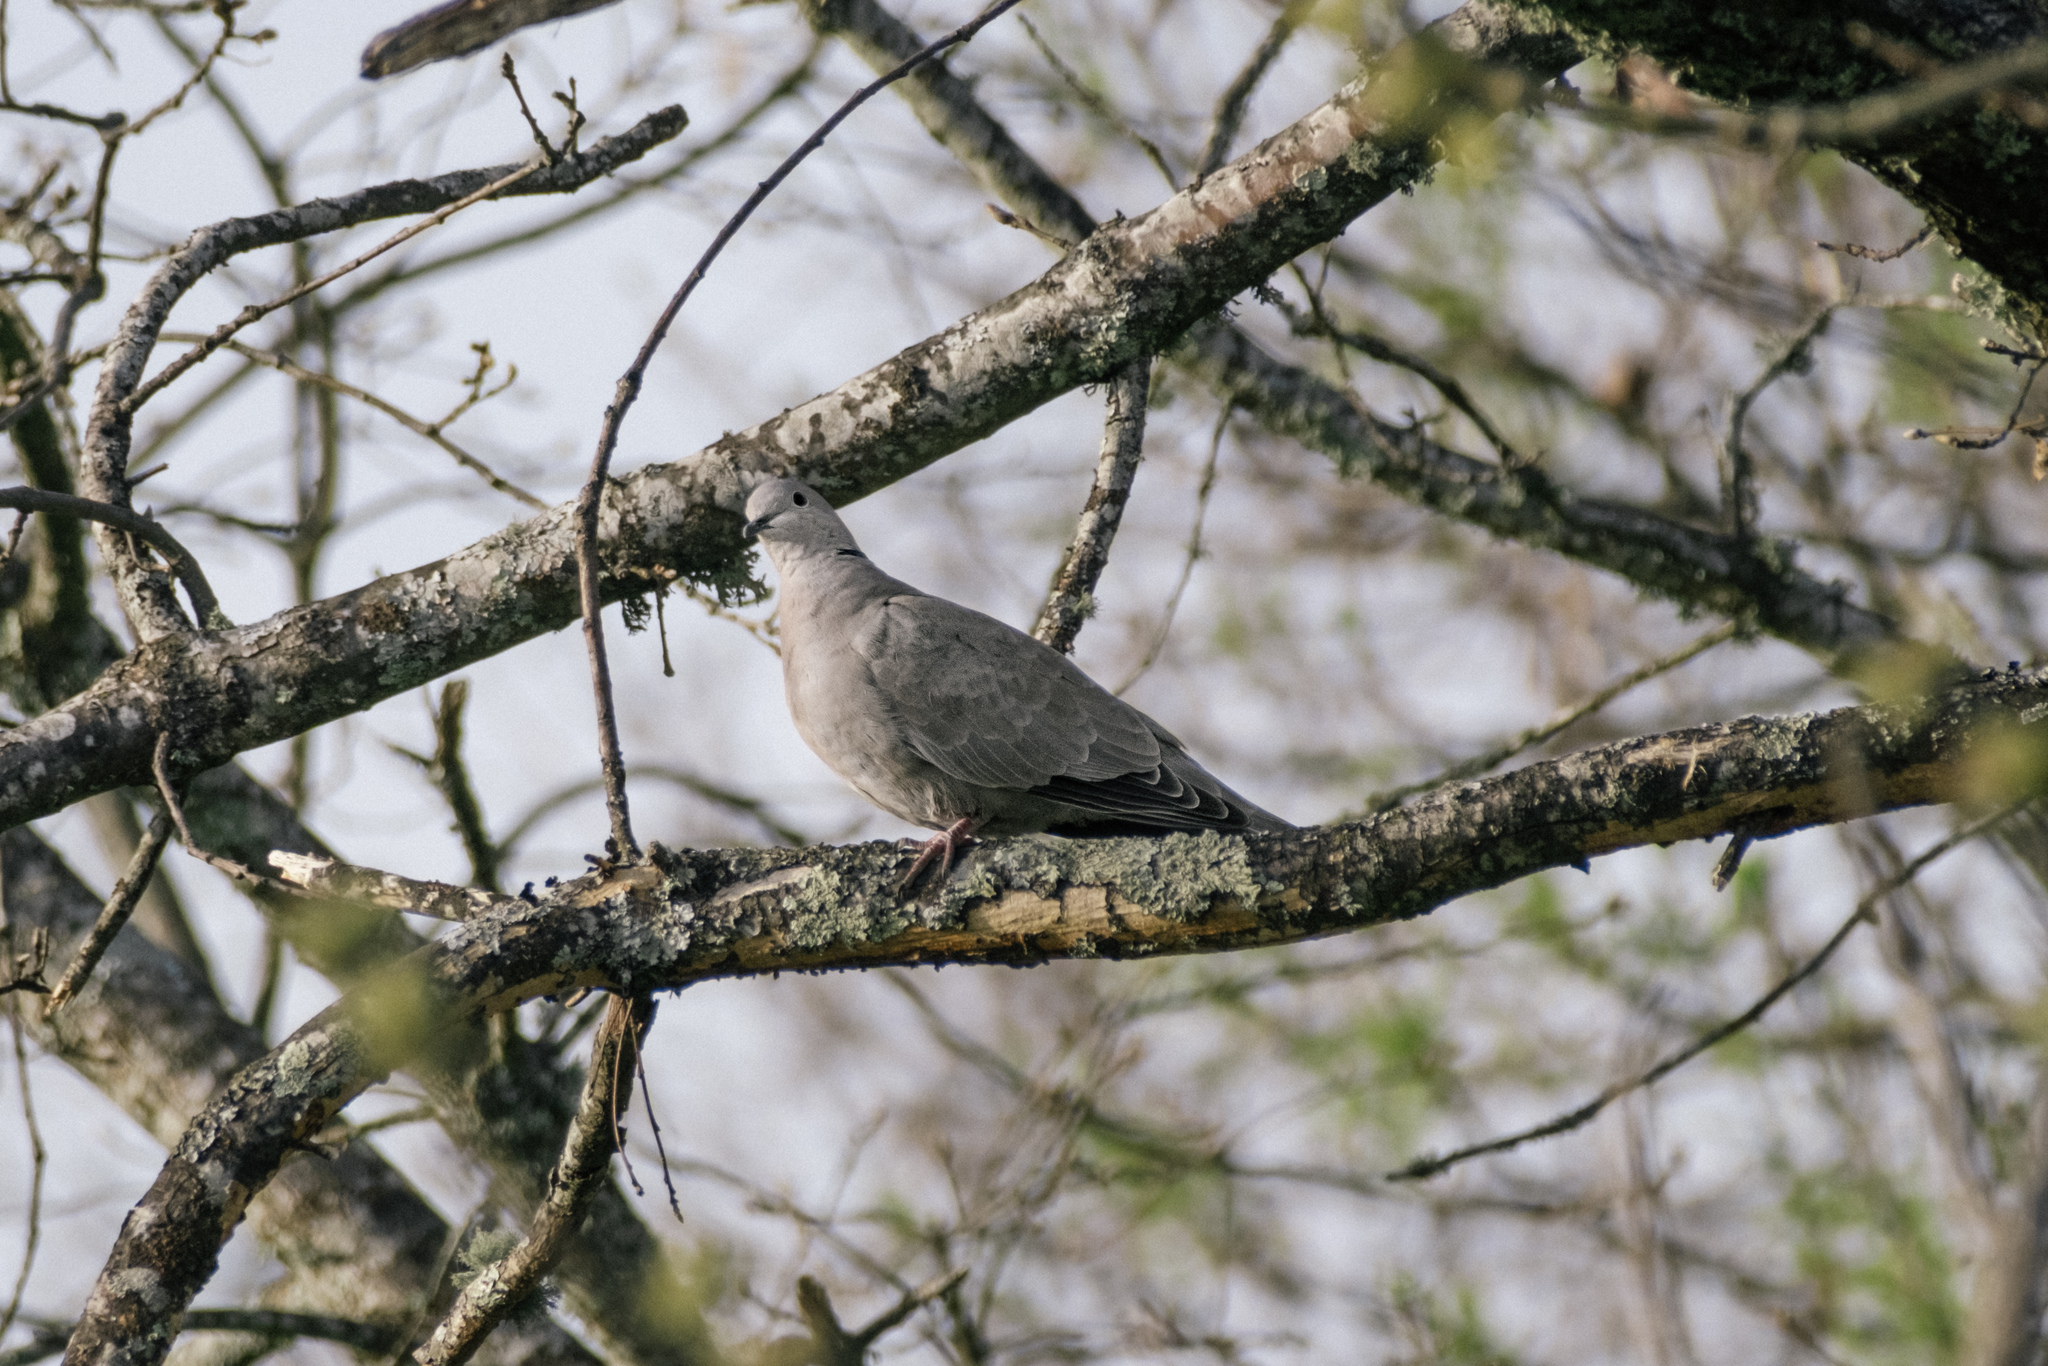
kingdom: Animalia
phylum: Chordata
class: Aves
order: Columbiformes
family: Columbidae
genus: Streptopelia
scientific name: Streptopelia decaocto
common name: Eurasian collared dove
